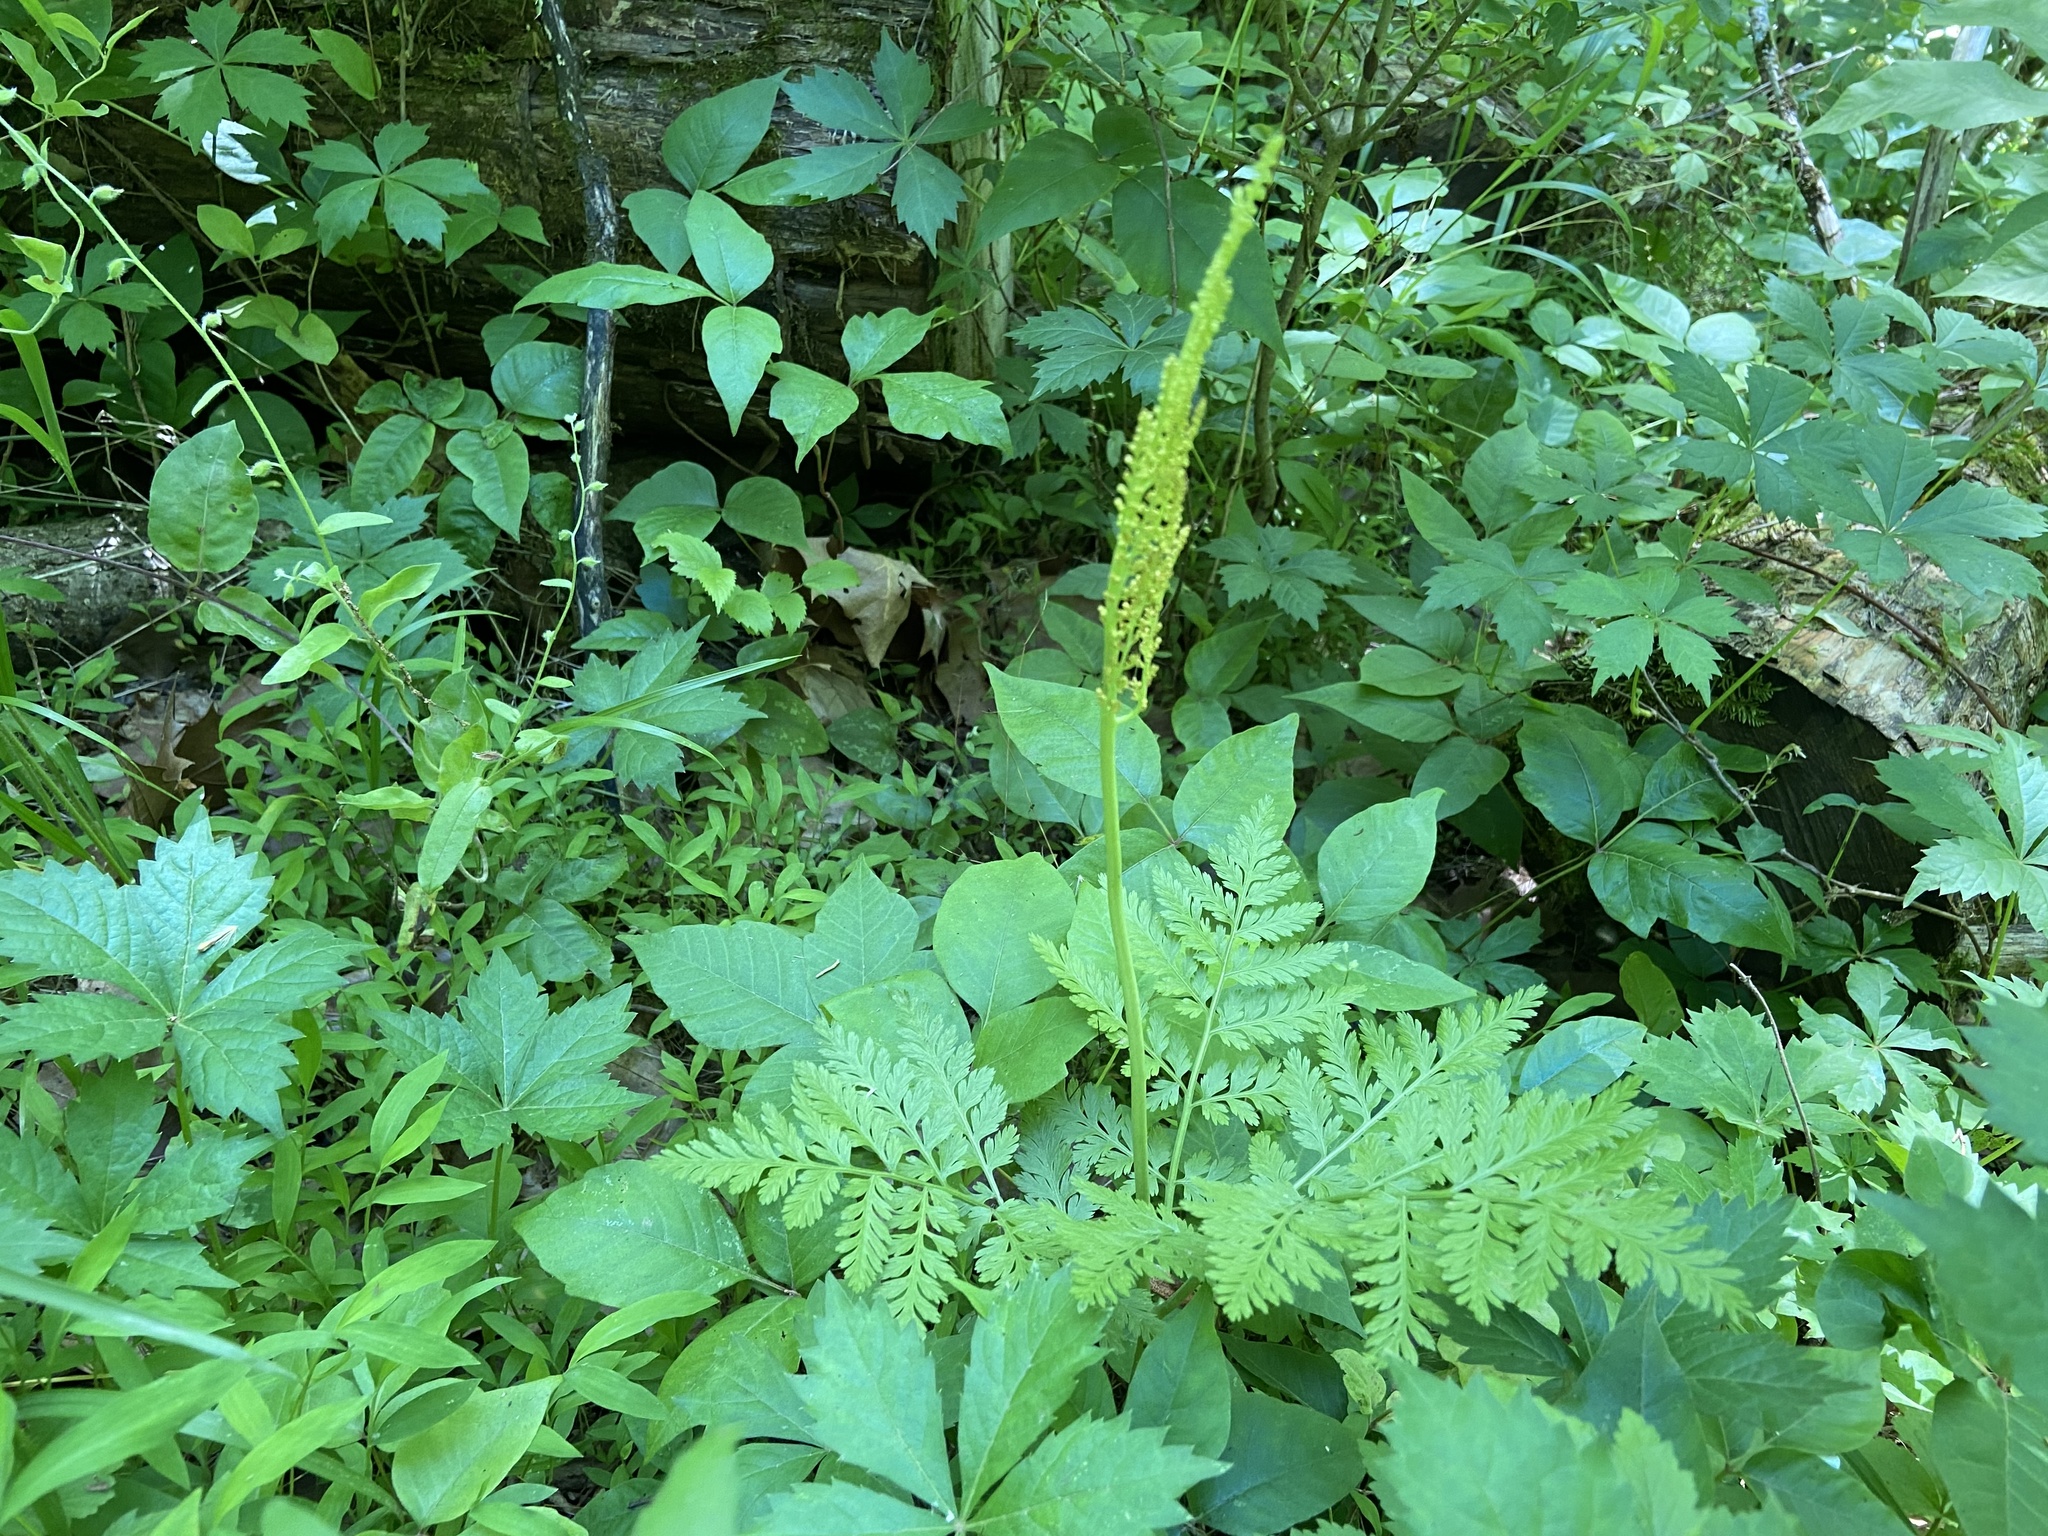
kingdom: Plantae
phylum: Tracheophyta
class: Polypodiopsida
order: Ophioglossales
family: Ophioglossaceae
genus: Botrypus
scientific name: Botrypus virginianus
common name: Common grapefern
